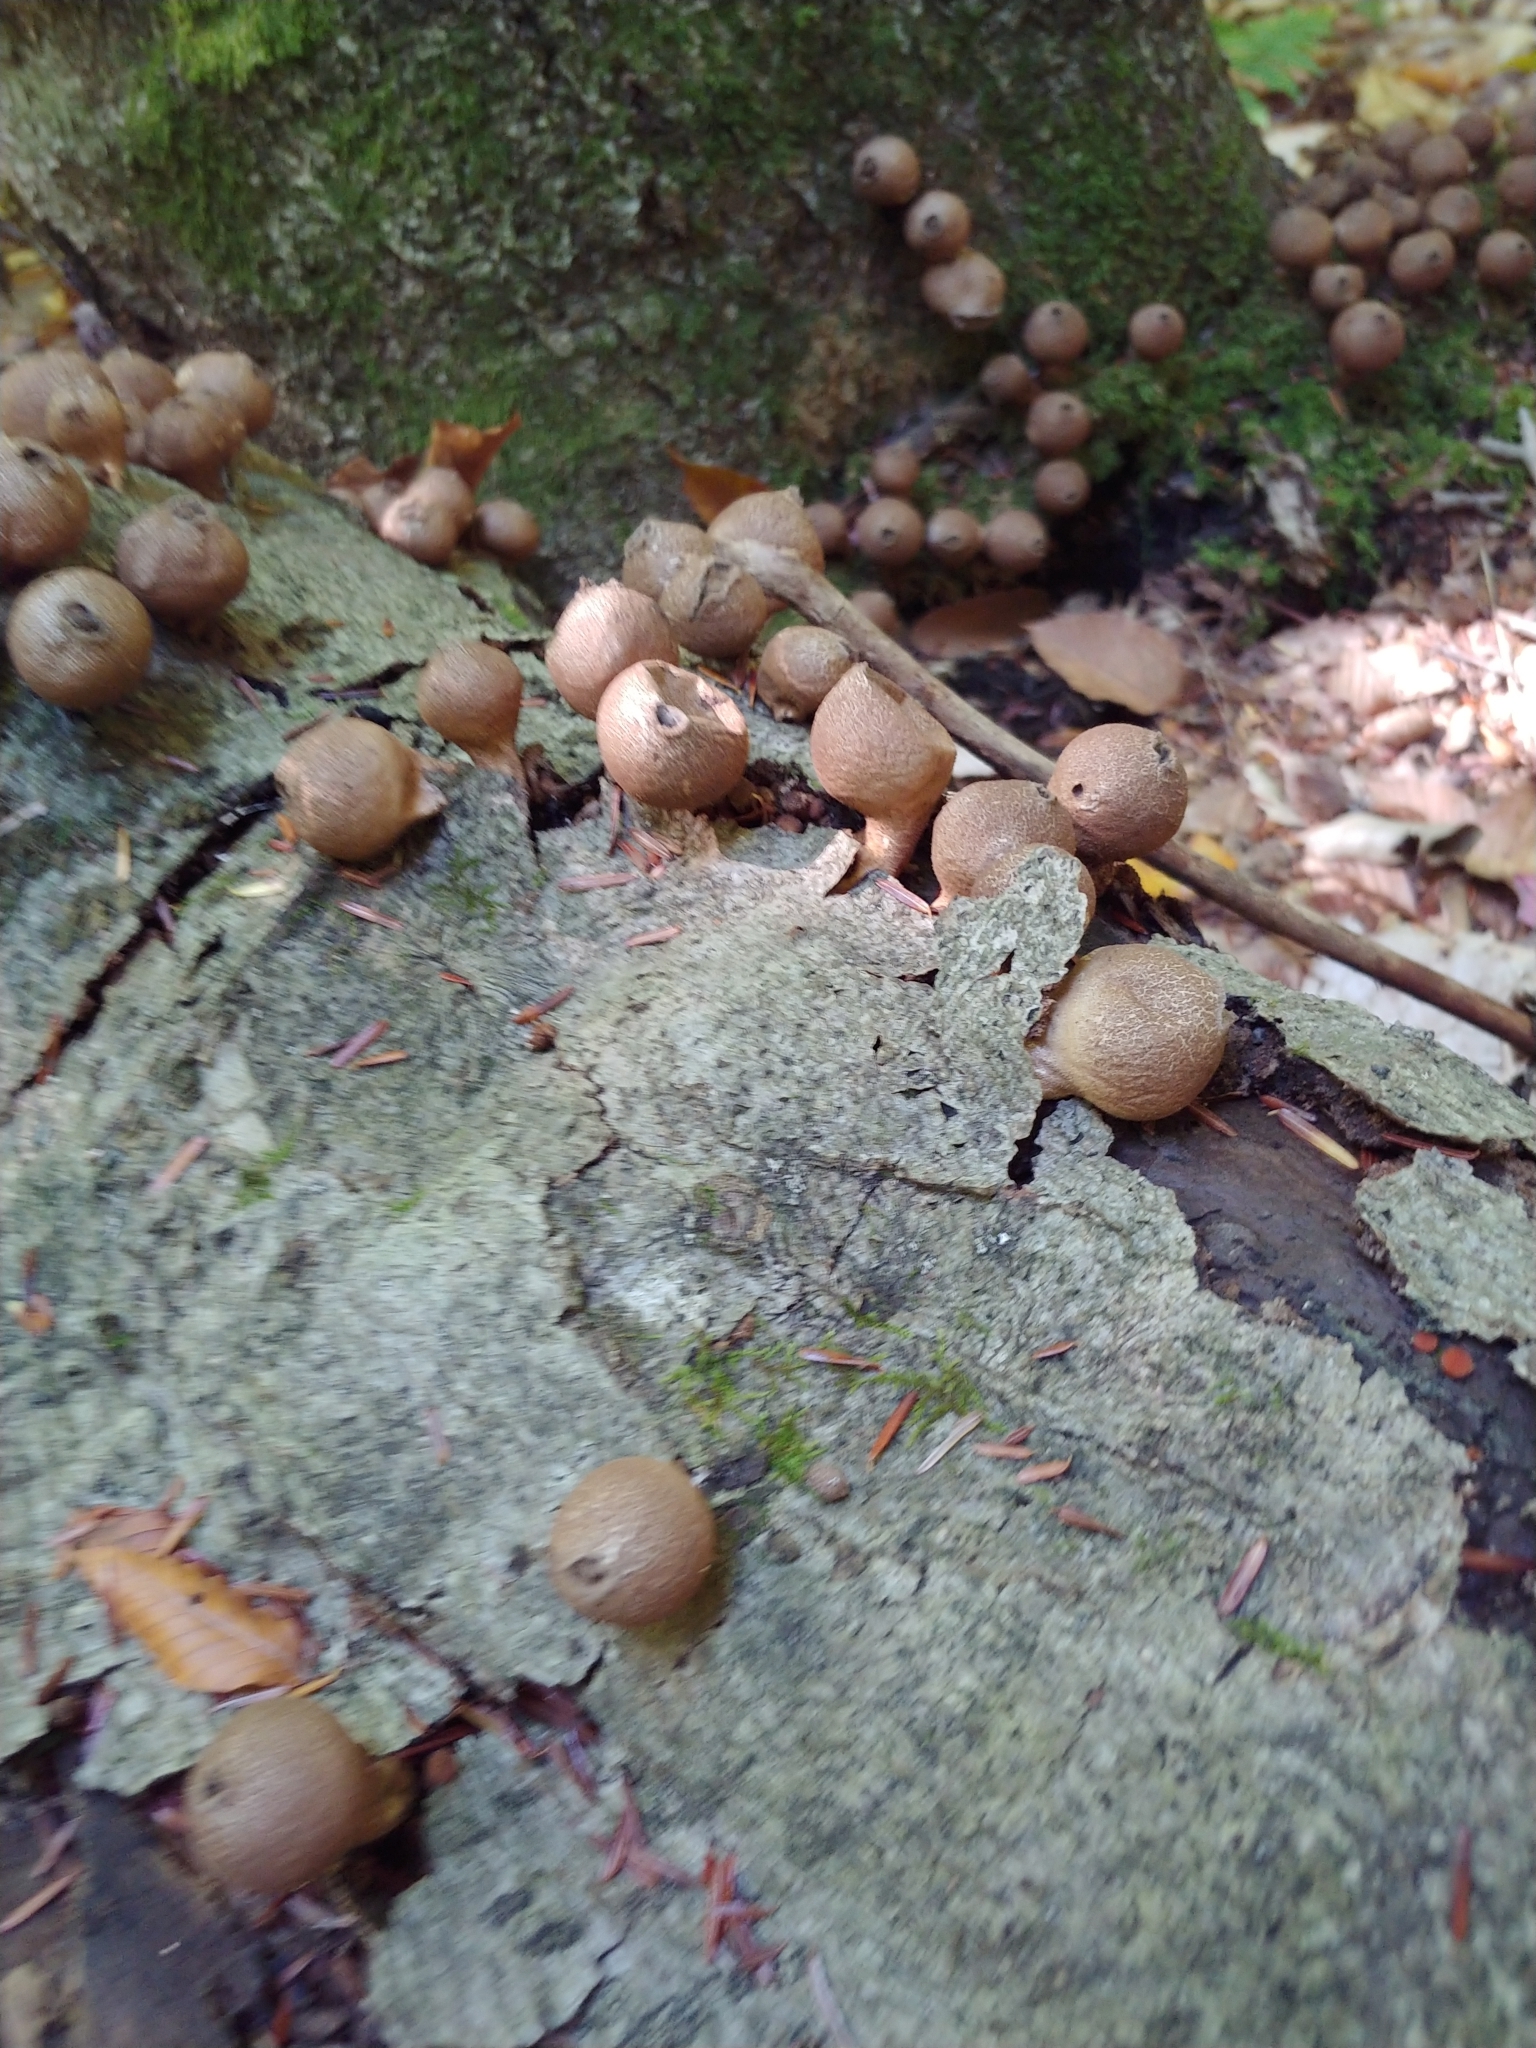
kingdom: Fungi
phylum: Basidiomycota
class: Agaricomycetes
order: Agaricales
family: Lycoperdaceae
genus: Apioperdon
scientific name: Apioperdon pyriforme
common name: Pear-shaped puffball
